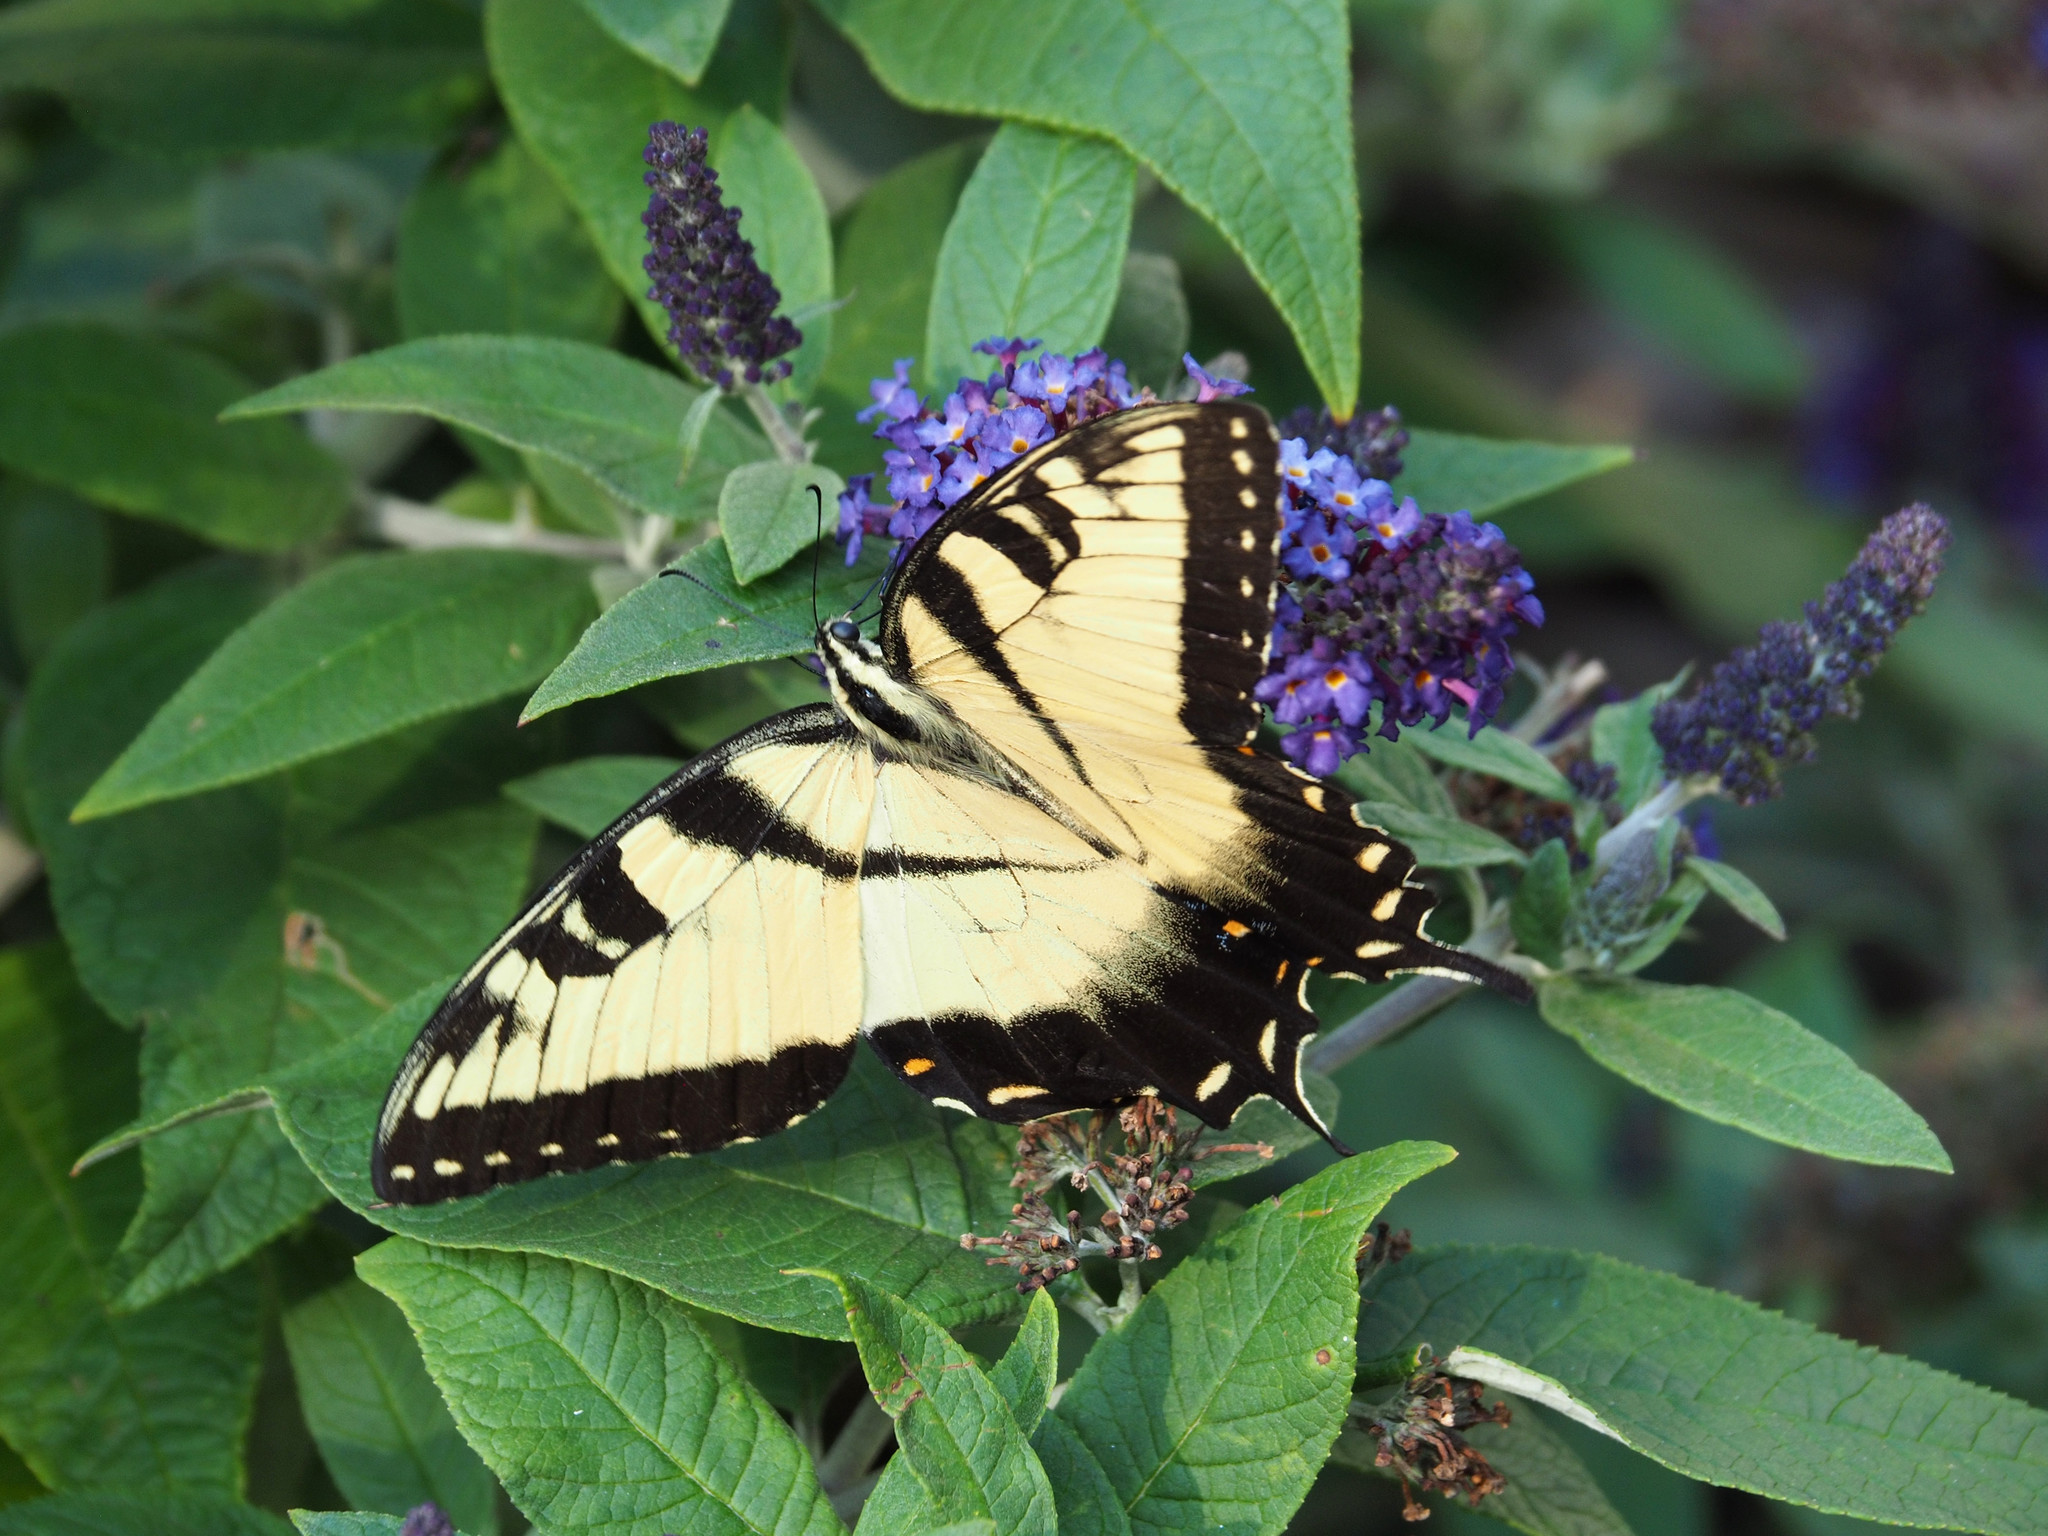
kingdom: Animalia
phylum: Arthropoda
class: Insecta
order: Lepidoptera
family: Papilionidae
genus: Papilio
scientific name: Papilio glaucus
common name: Tiger swallowtail
